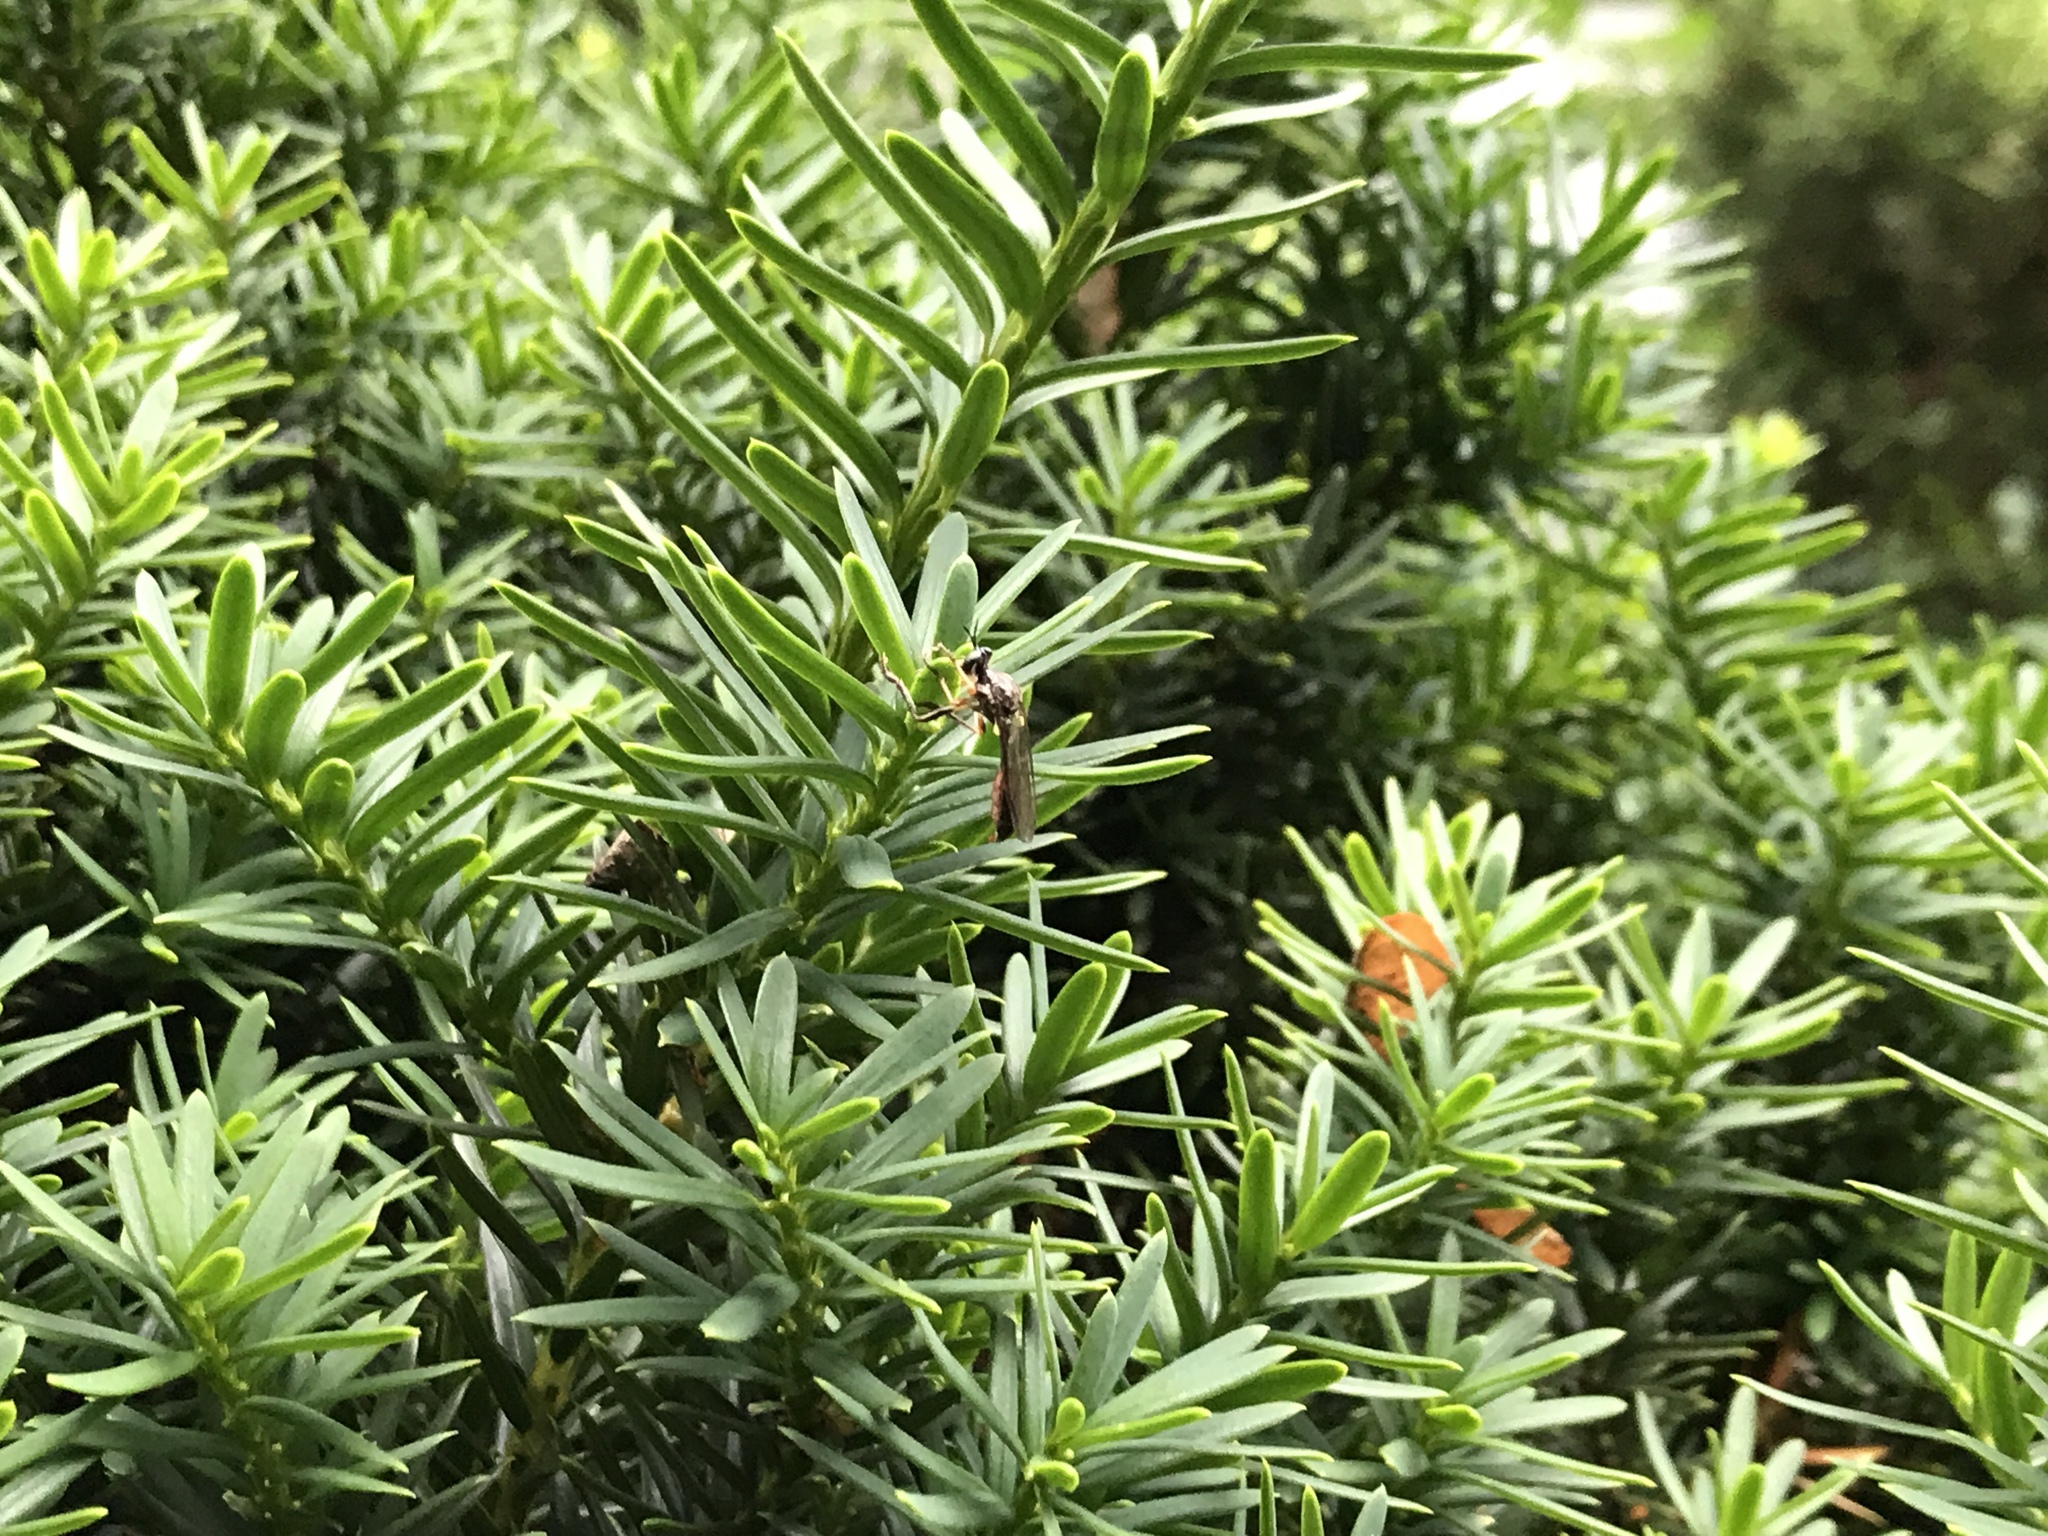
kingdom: Animalia
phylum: Arthropoda
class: Insecta
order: Diptera
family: Asilidae
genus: Dioctria
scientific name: Dioctria hyalipennis
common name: Stripe-legged robberfly
